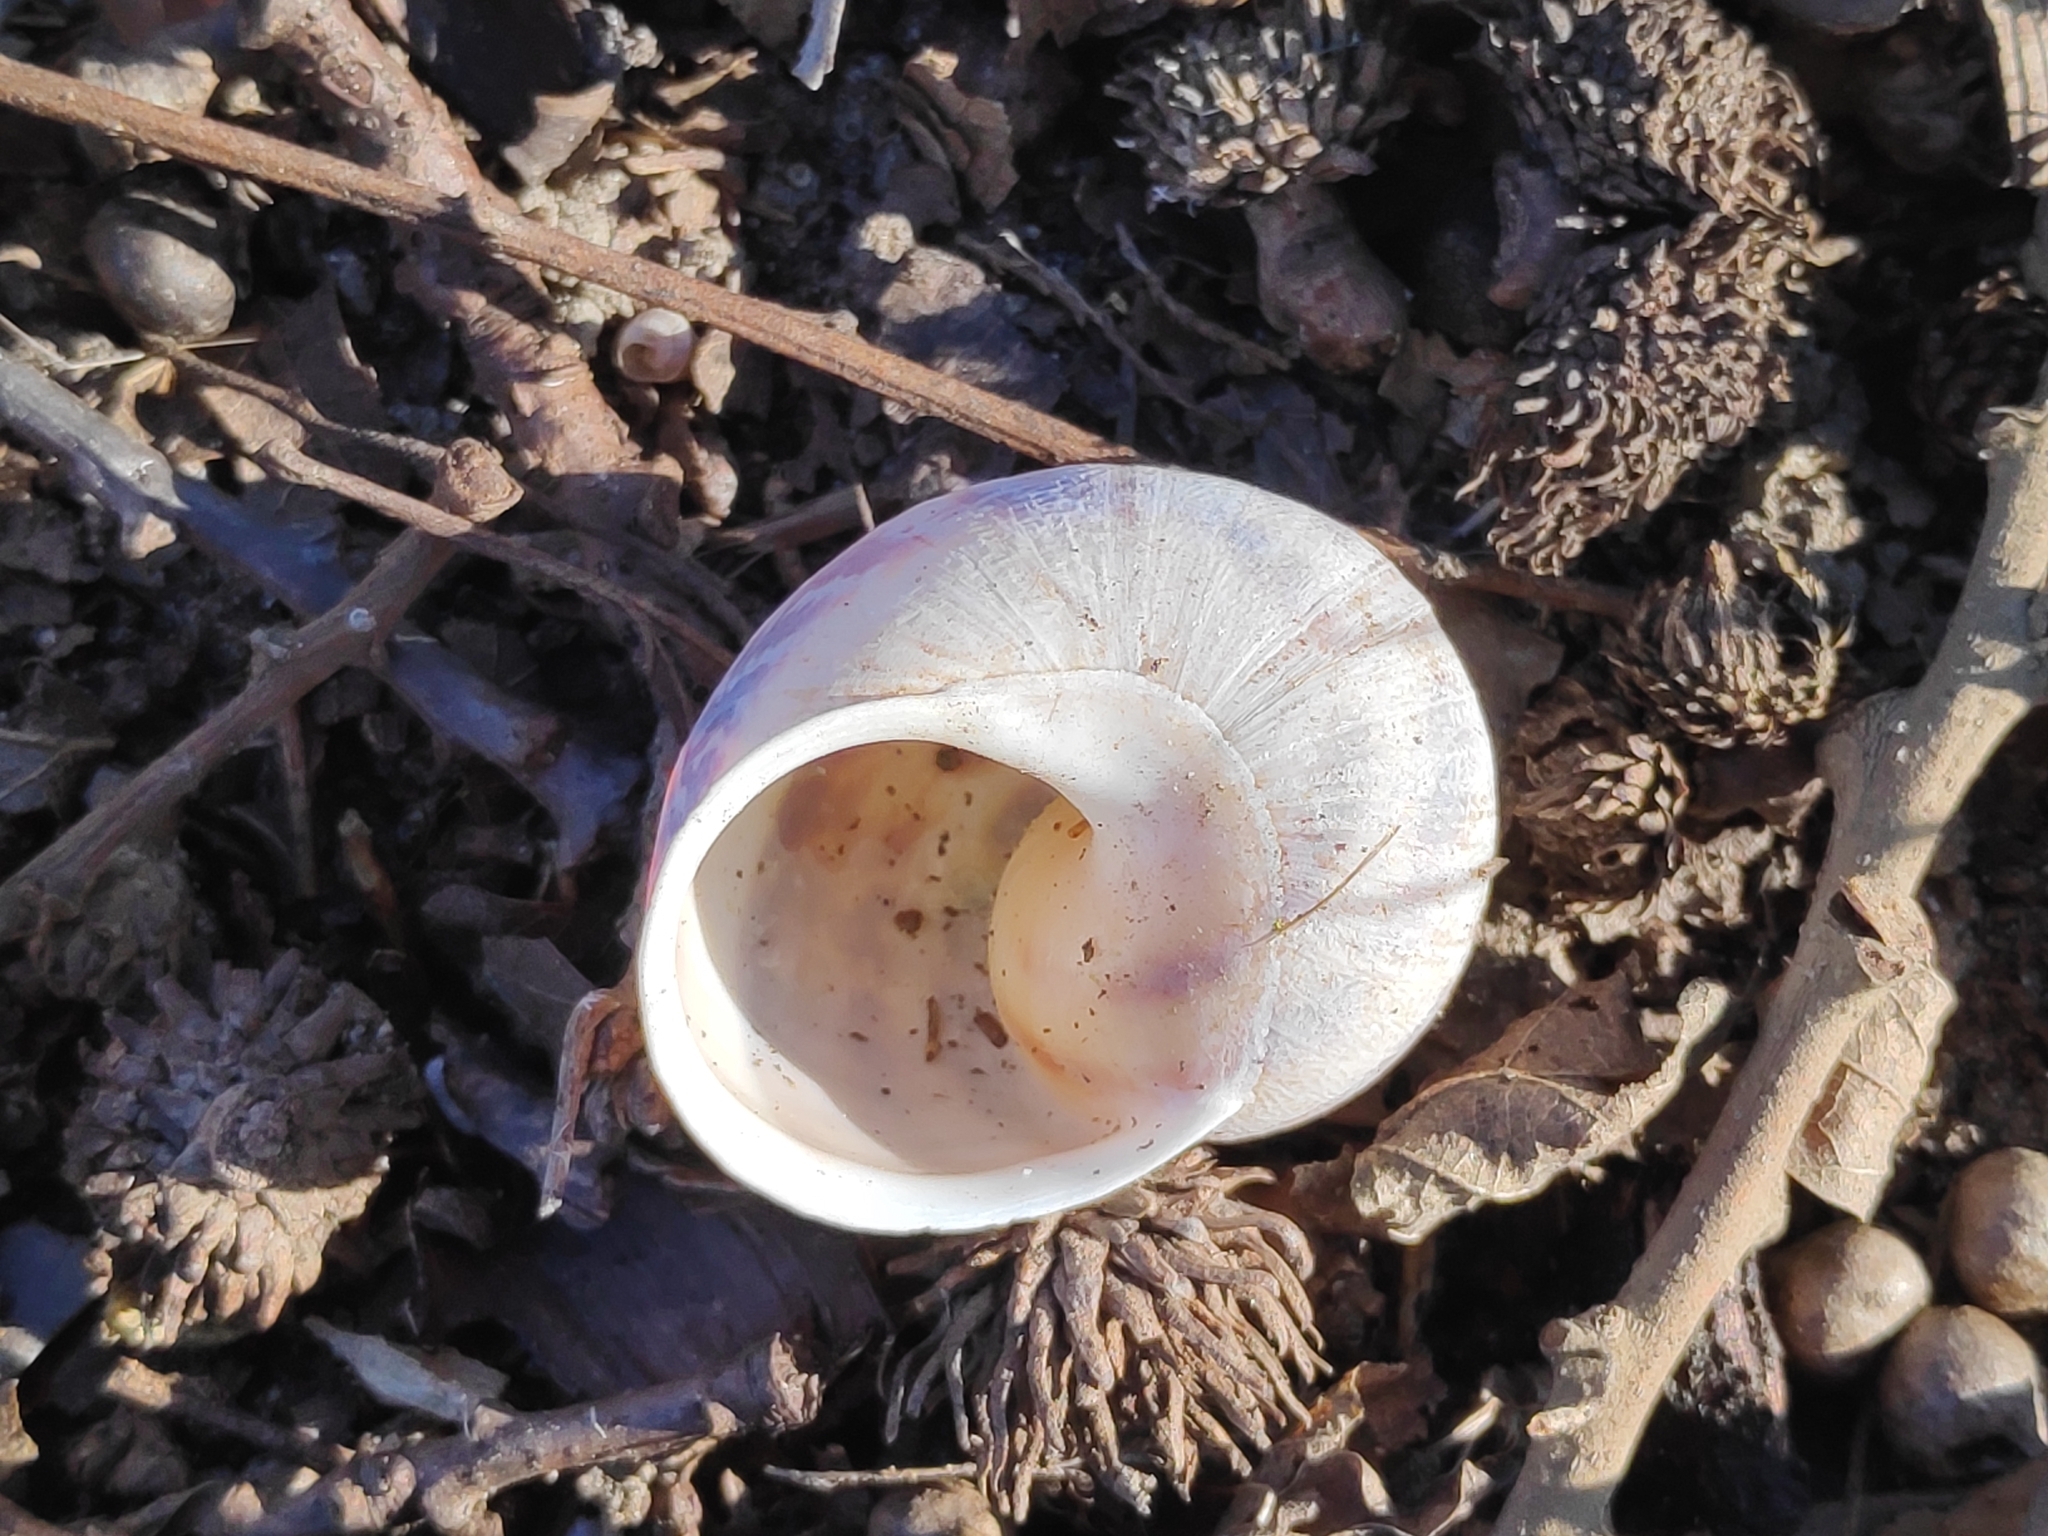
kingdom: Animalia
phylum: Mollusca
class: Gastropoda
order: Stylommatophora
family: Helicidae
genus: Cornu
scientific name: Cornu aspersum
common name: Brown garden snail
